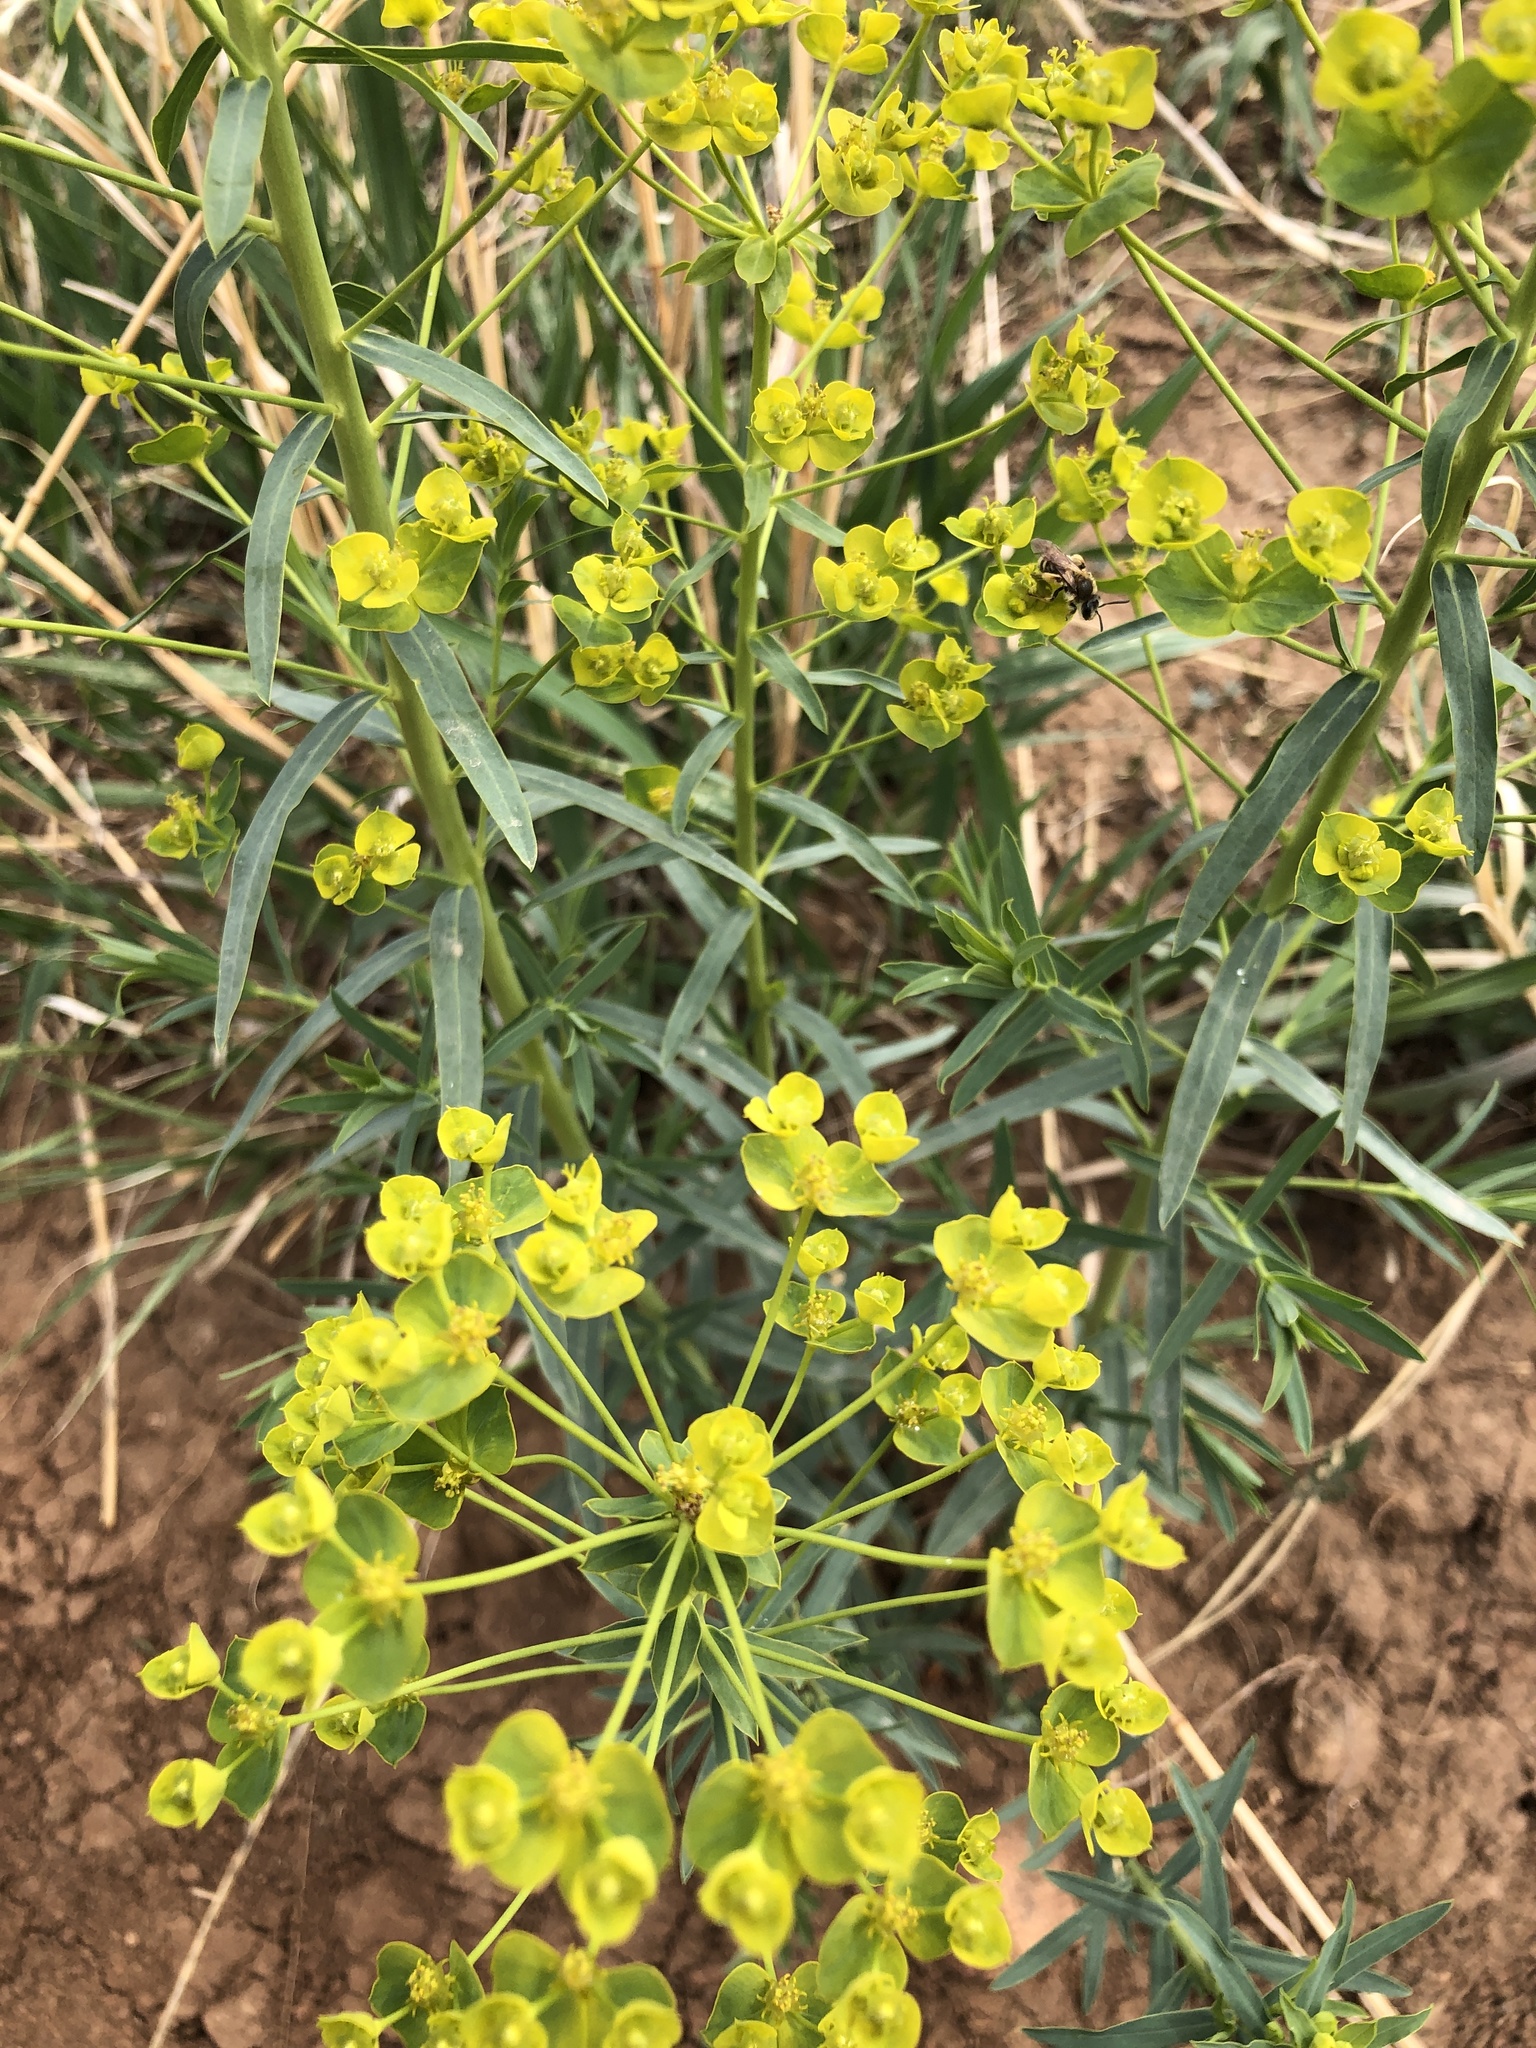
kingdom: Plantae
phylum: Tracheophyta
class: Magnoliopsida
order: Malpighiales
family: Euphorbiaceae
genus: Euphorbia
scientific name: Euphorbia virgata
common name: Leafy spurge
